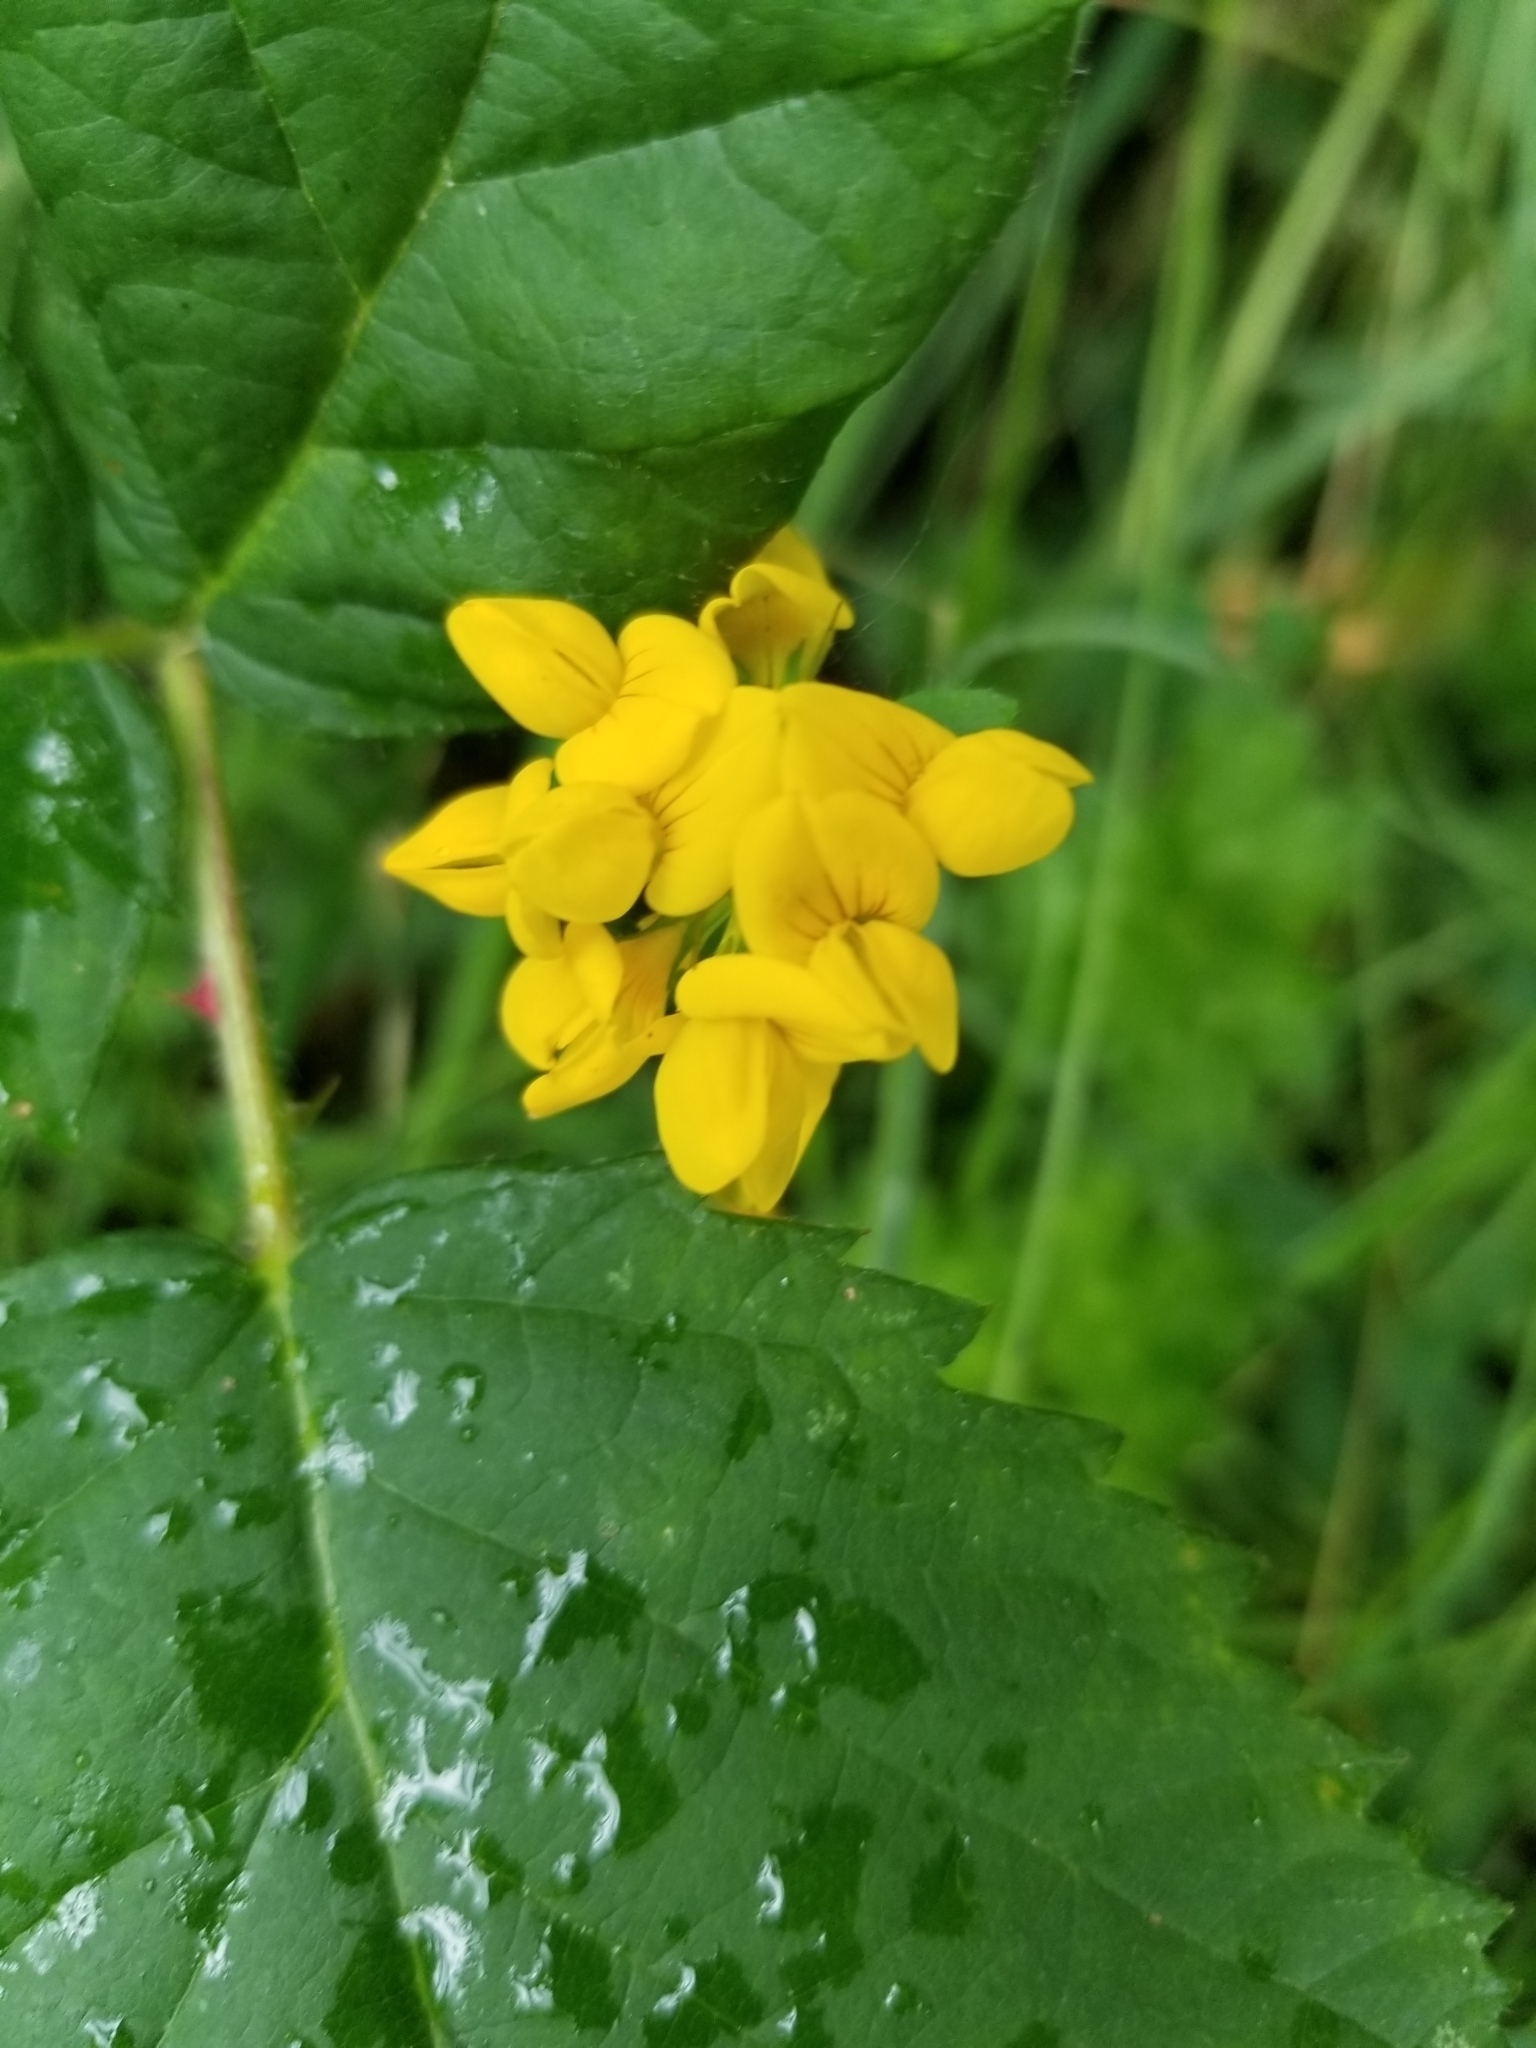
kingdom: Plantae
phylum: Tracheophyta
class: Magnoliopsida
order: Fabales
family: Fabaceae
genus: Lotus
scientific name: Lotus pedunculatus
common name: Greater birdsfoot-trefoil
